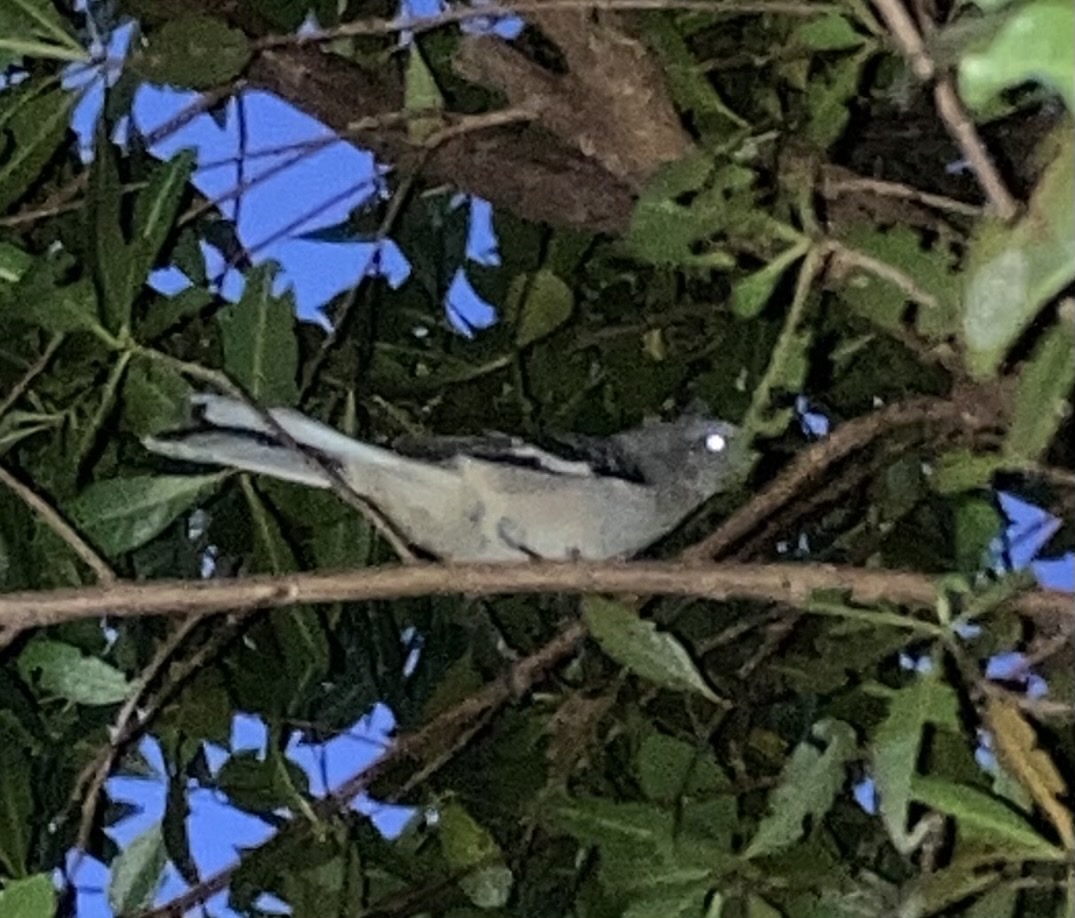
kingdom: Animalia
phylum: Chordata
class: Aves
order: Passeriformes
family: Mimidae
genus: Mimus
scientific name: Mimus polyglottos
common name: Northern mockingbird
